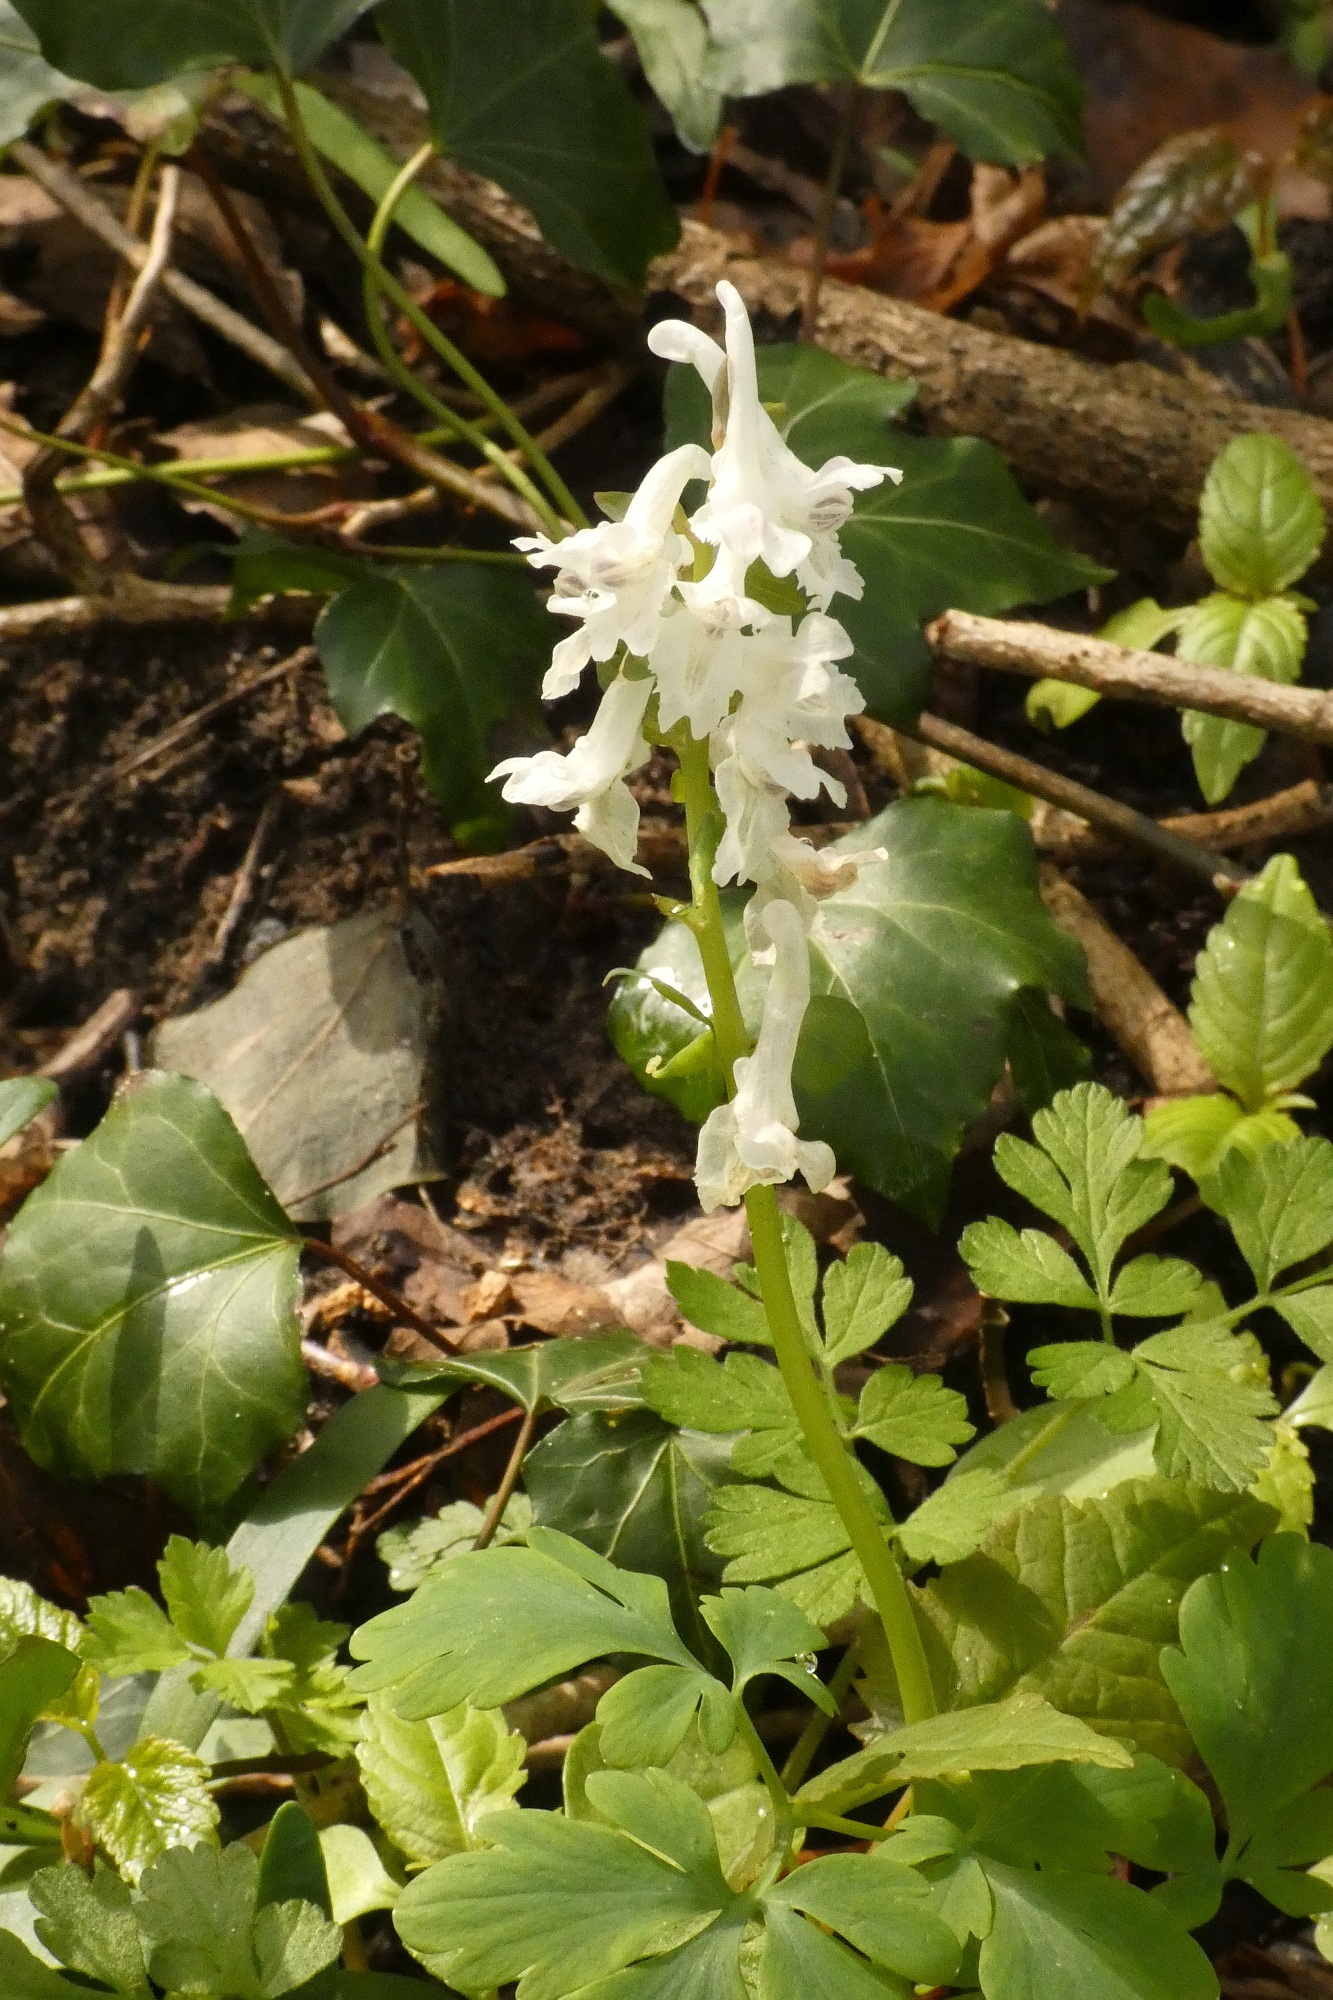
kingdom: Plantae
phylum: Tracheophyta
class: Magnoliopsida
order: Ranunculales
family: Papaveraceae
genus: Corydalis
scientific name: Corydalis cava
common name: Hollowroot
